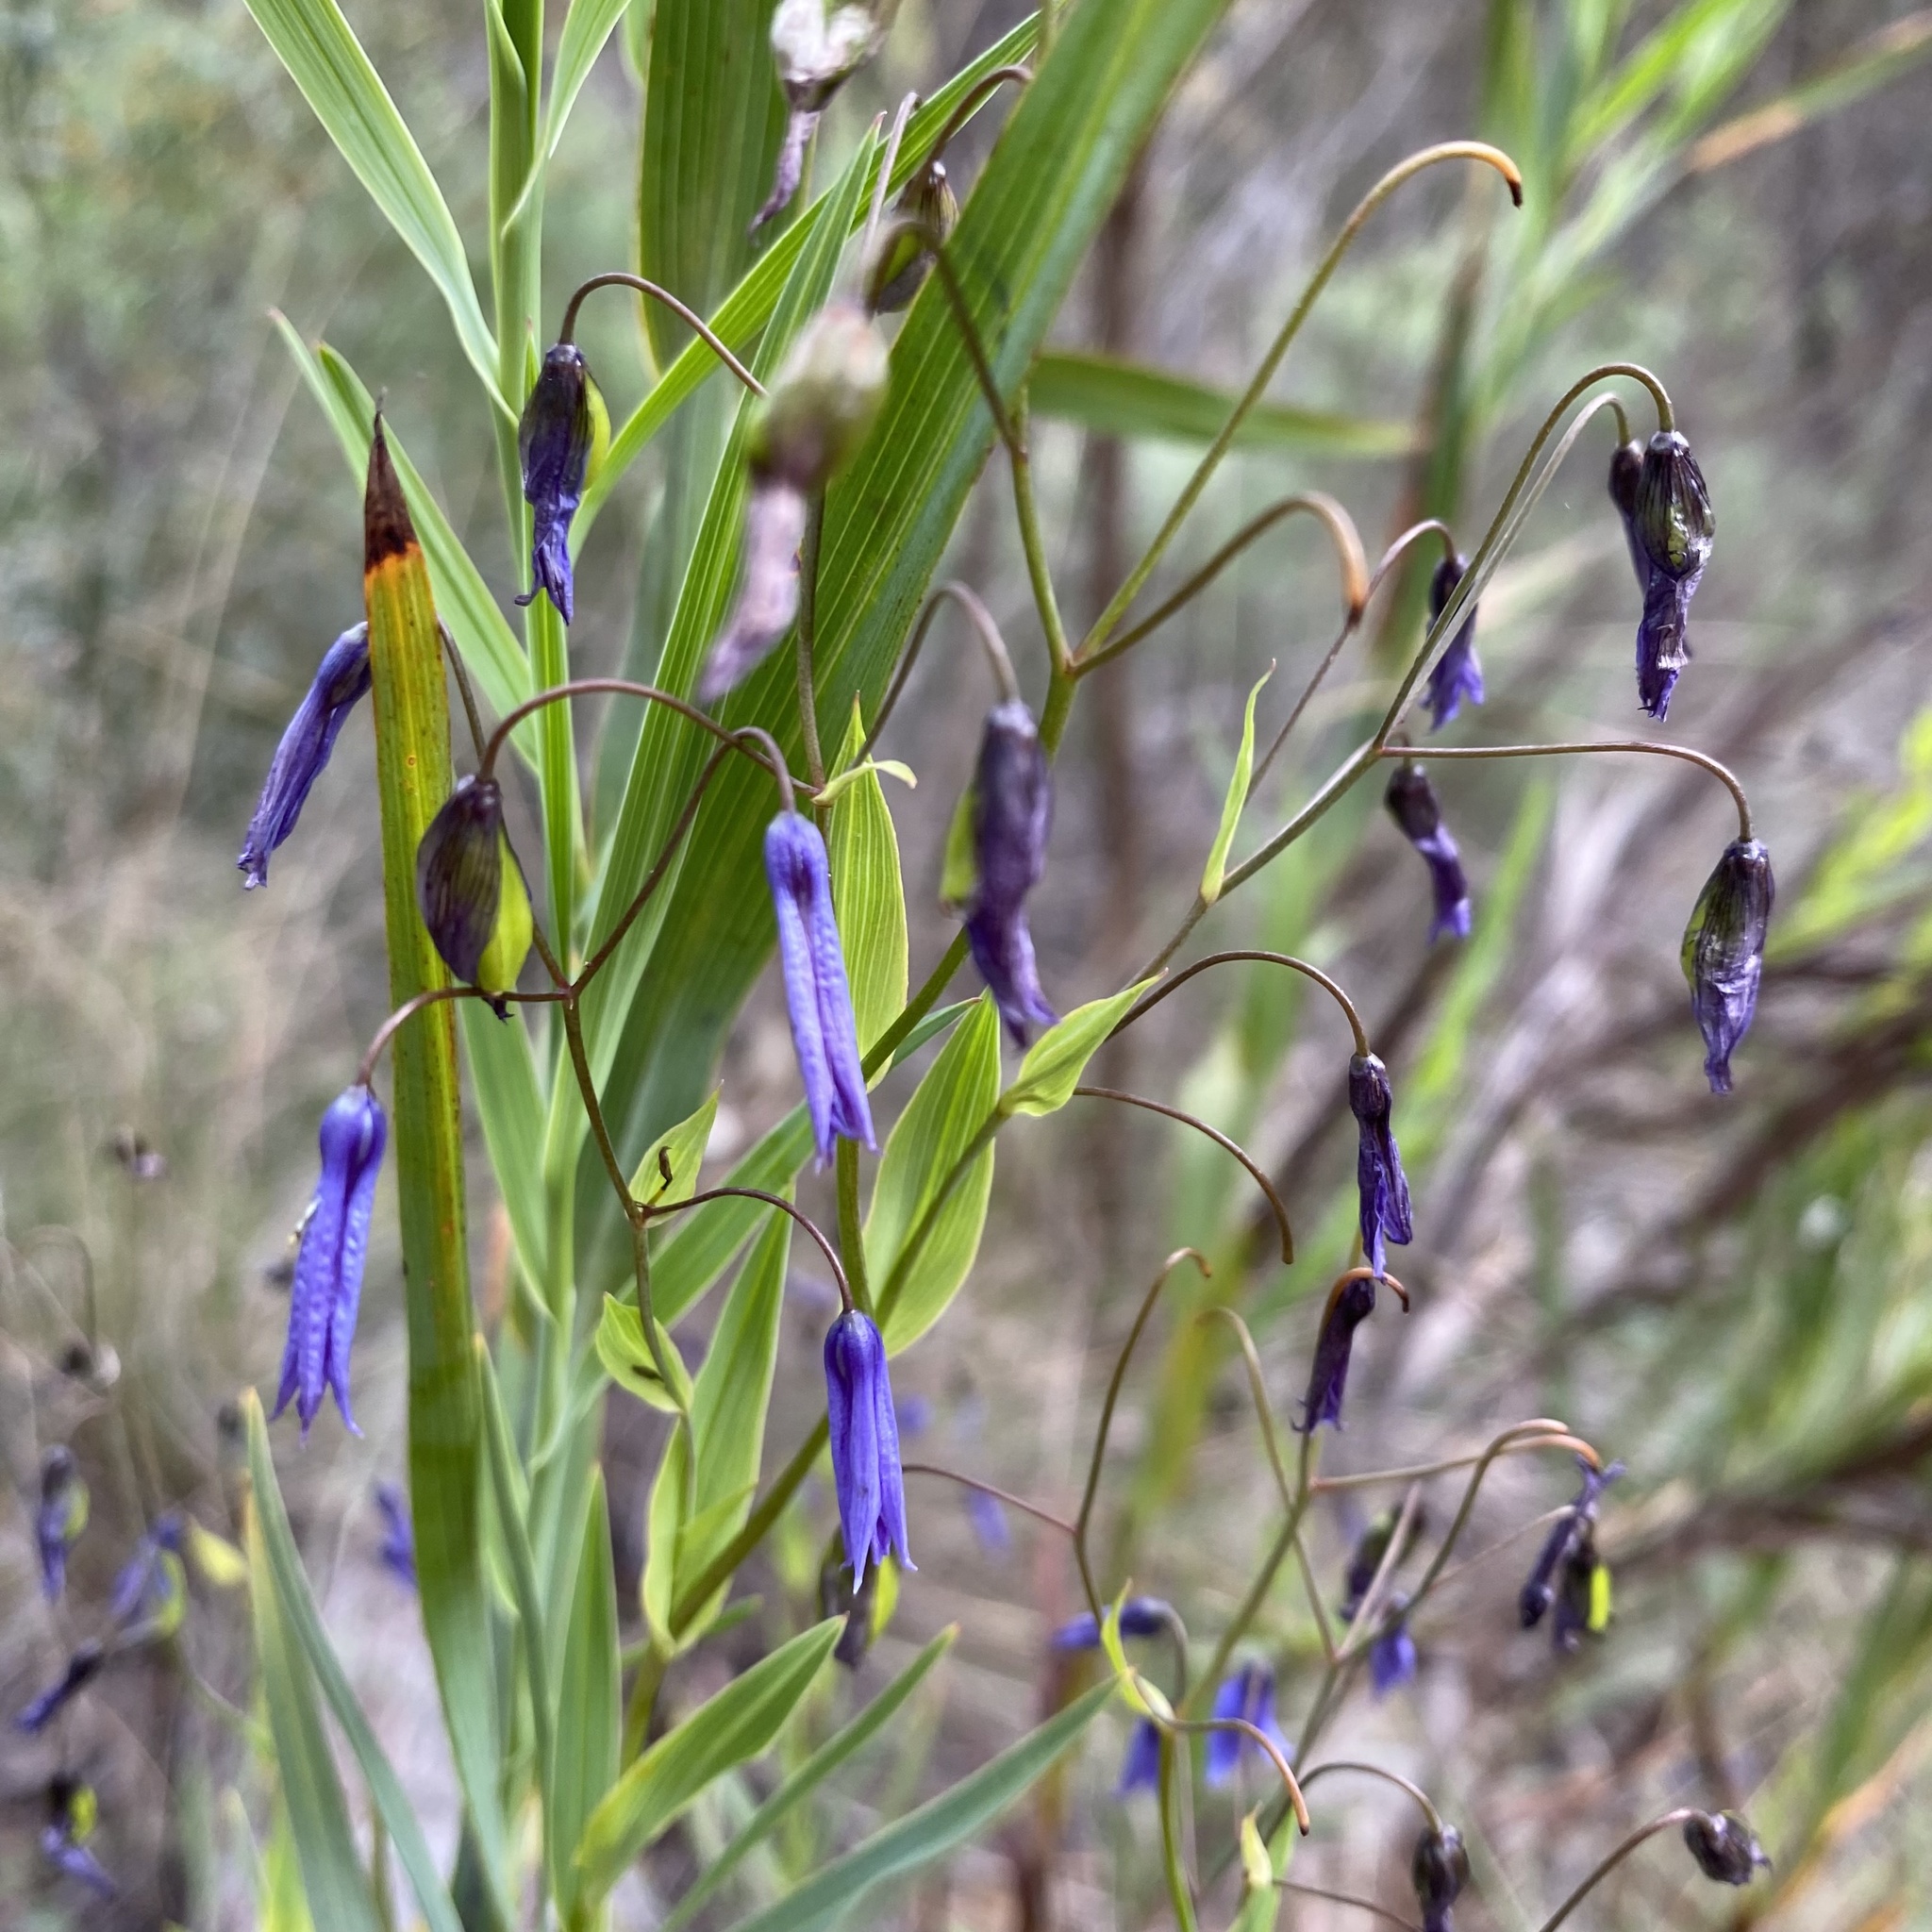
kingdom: Plantae
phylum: Tracheophyta
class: Liliopsida
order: Asparagales
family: Asphodelaceae
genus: Stypandra
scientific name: Stypandra glauca
